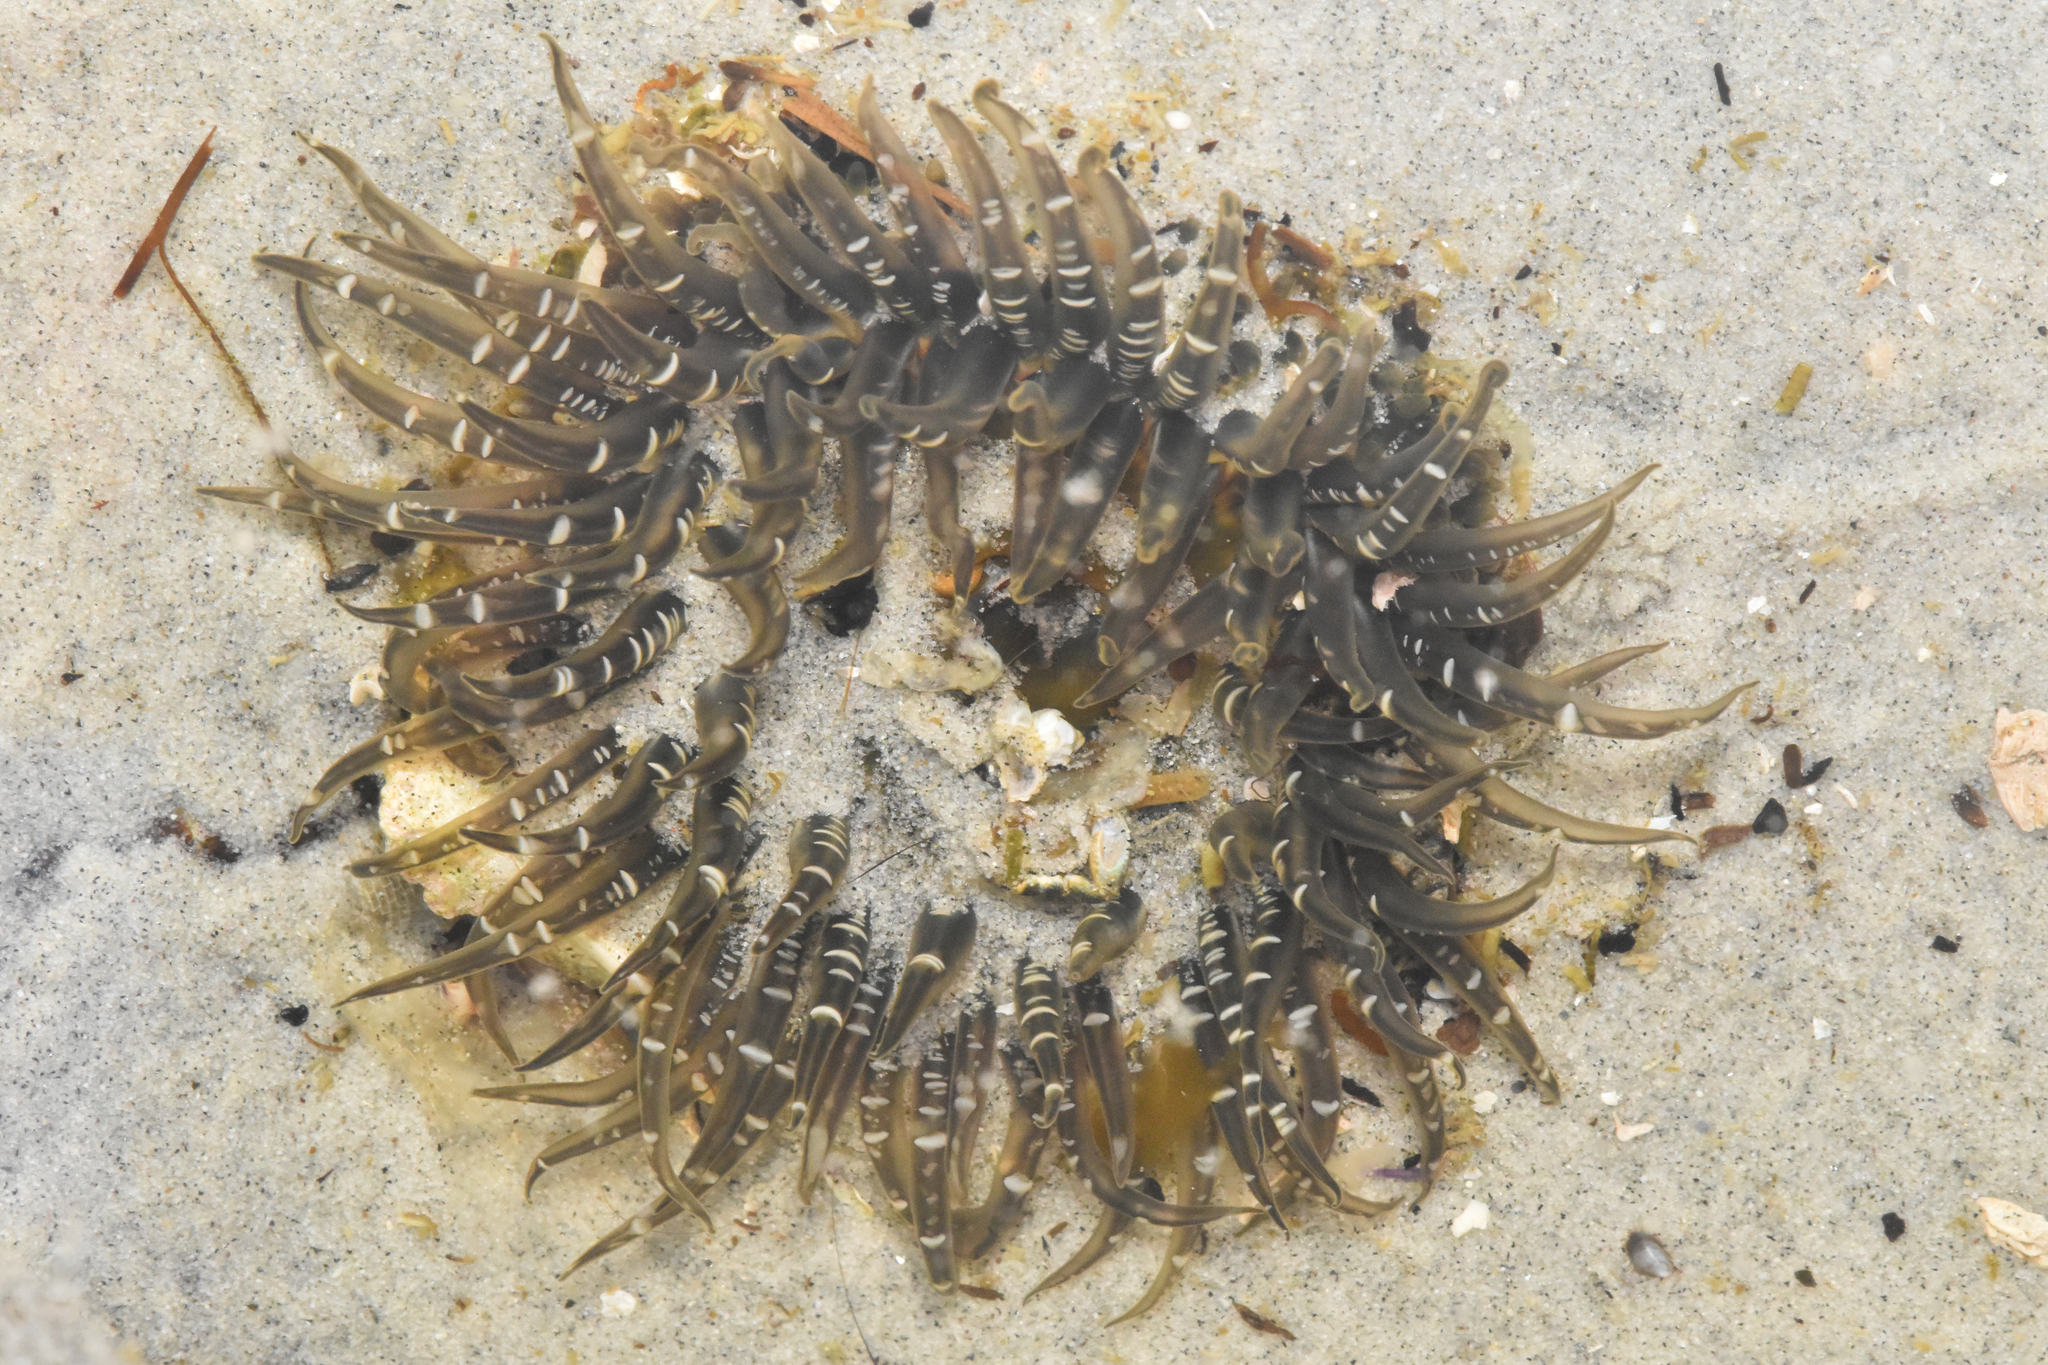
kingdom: Animalia
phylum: Cnidaria
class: Anthozoa
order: Actiniaria
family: Actiniidae
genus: Anthopleura
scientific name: Anthopleura artemisia
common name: Buried sea anemone
